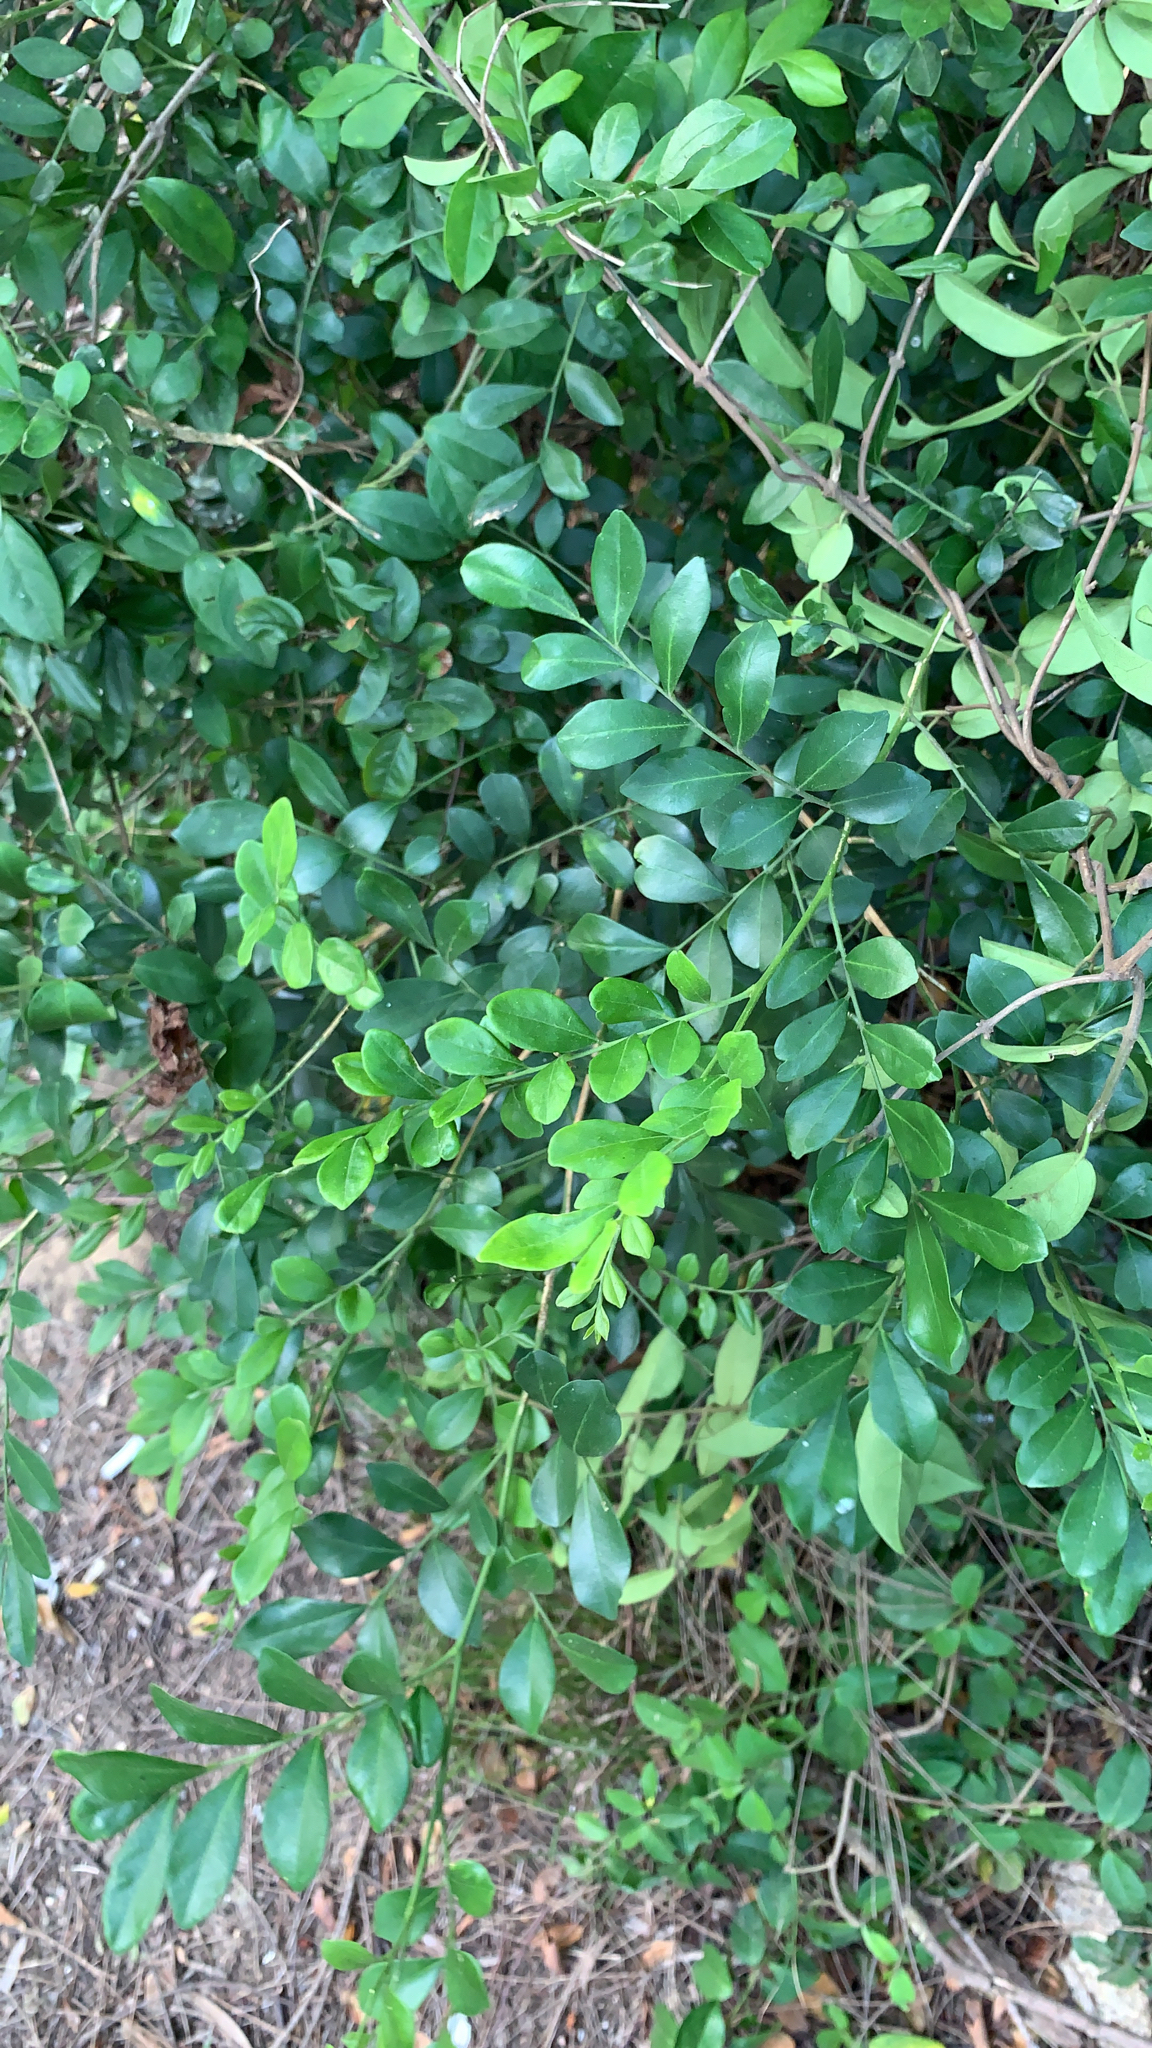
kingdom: Plantae
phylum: Tracheophyta
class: Magnoliopsida
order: Sapindales
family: Rutaceae
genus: Murraya
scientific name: Murraya paniculata
